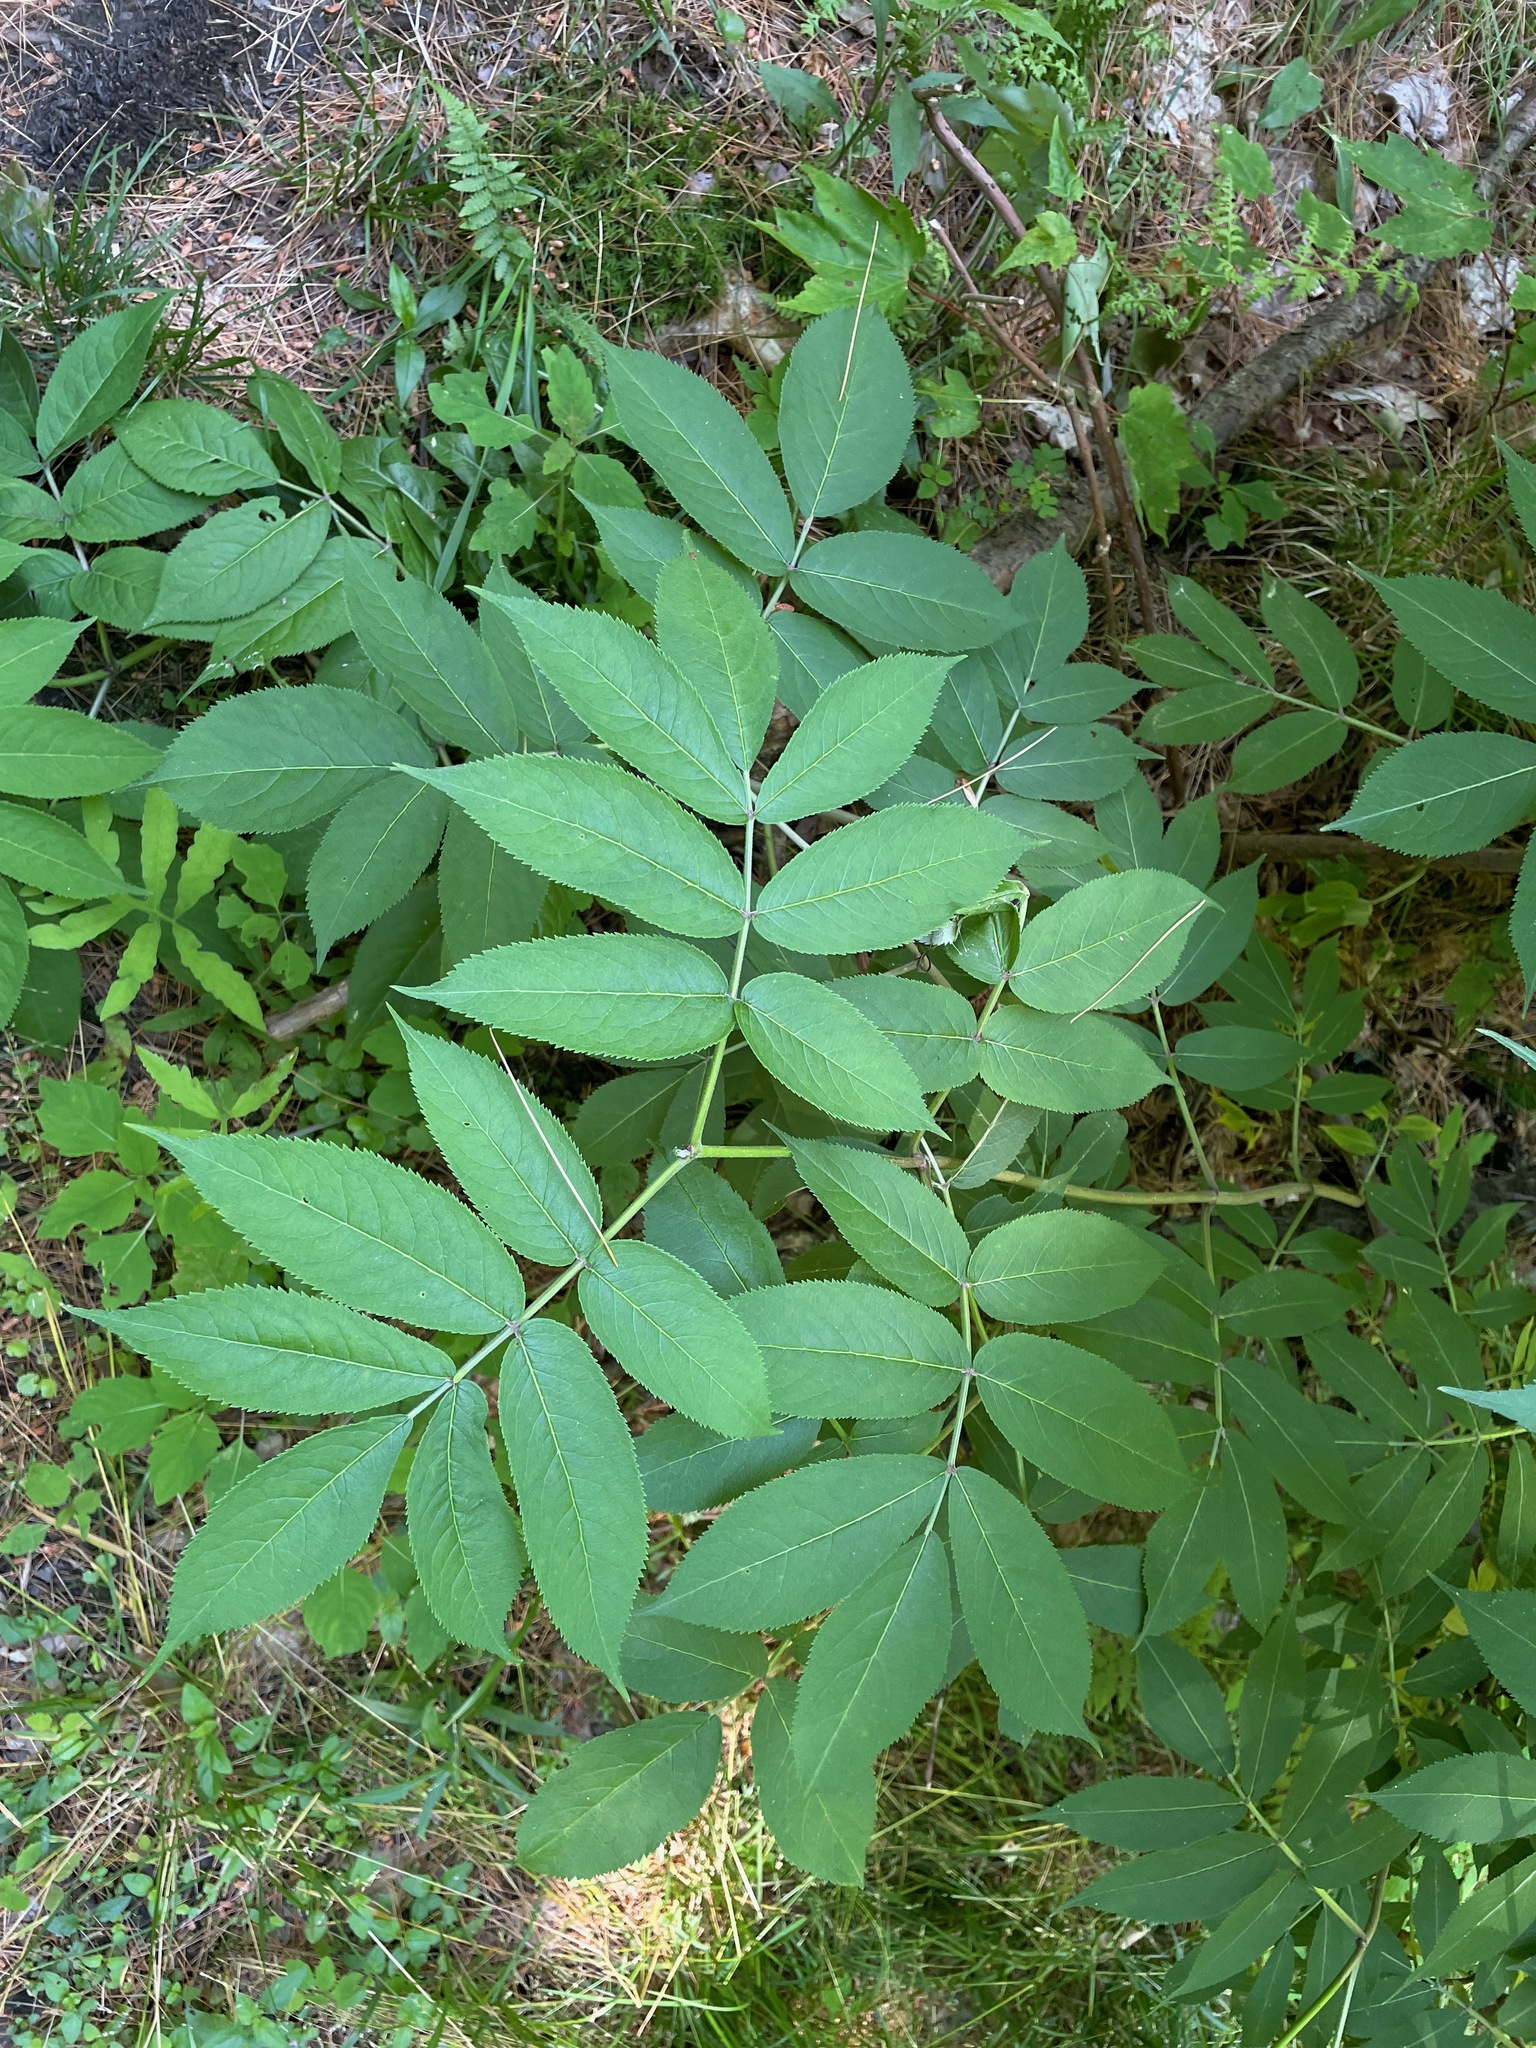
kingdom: Plantae
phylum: Tracheophyta
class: Magnoliopsida
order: Dipsacales
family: Viburnaceae
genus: Sambucus
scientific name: Sambucus racemosa
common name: Red-berried elder
